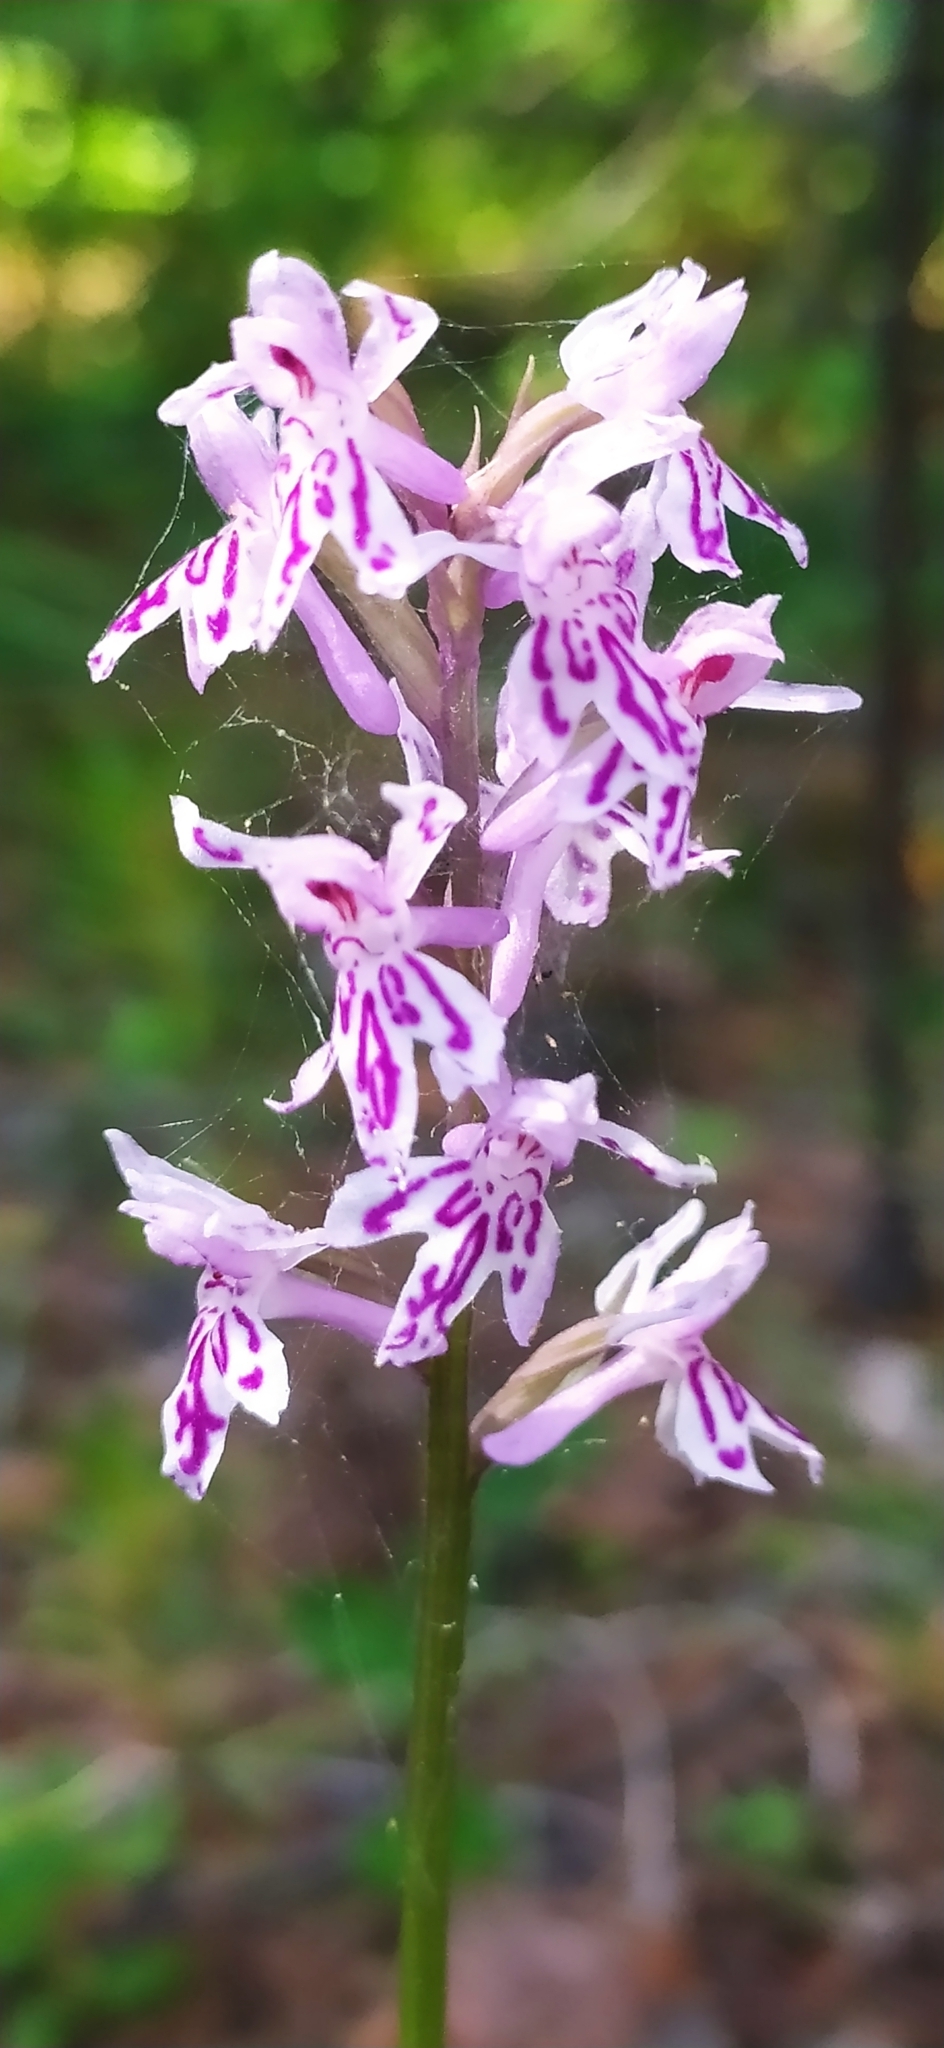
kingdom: Plantae
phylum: Tracheophyta
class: Liliopsida
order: Asparagales
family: Orchidaceae
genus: Dactylorhiza
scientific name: Dactylorhiza maculata
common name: Heath spotted-orchid
